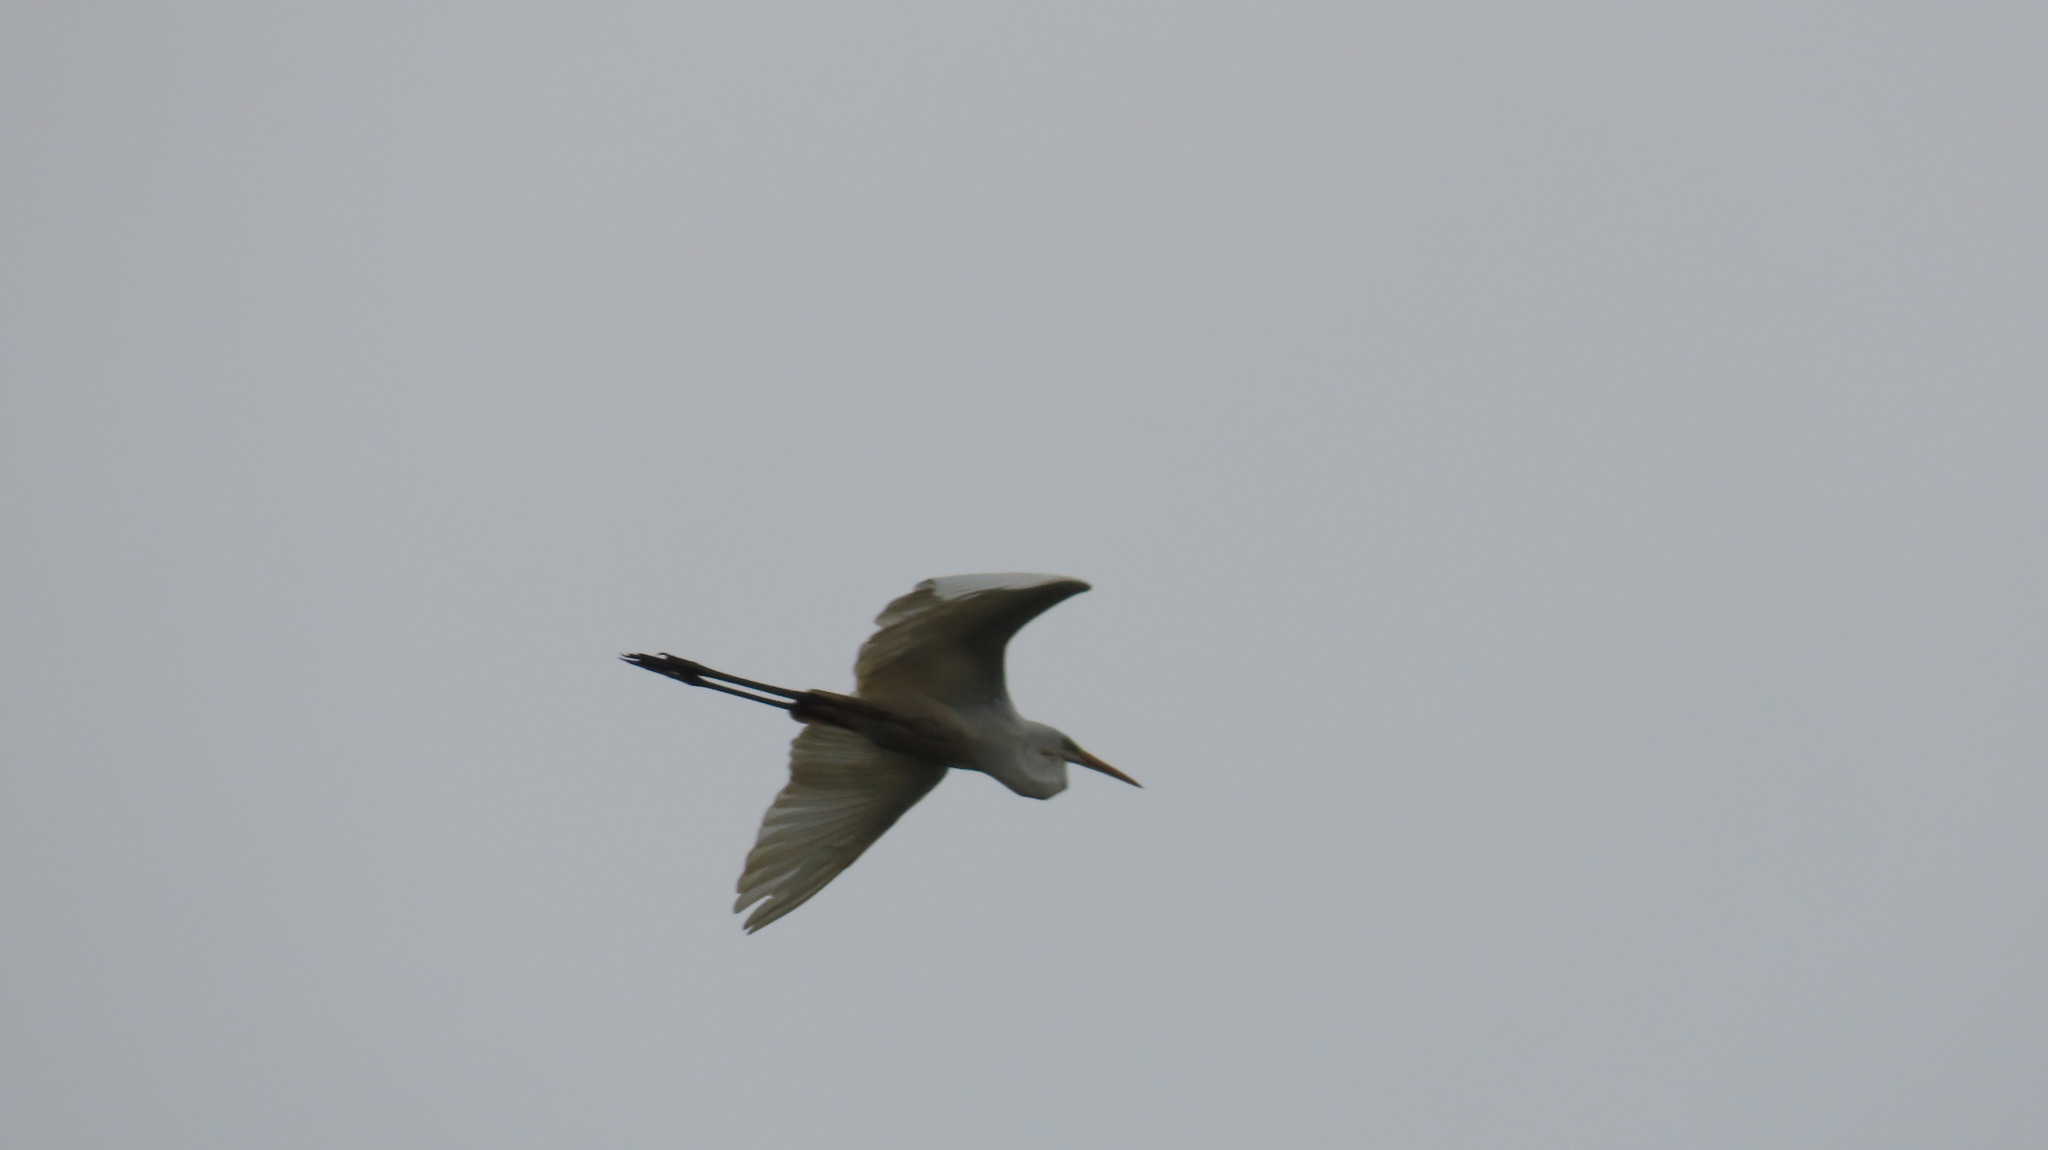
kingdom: Animalia
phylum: Chordata
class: Aves
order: Pelecaniformes
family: Ardeidae
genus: Egretta
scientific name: Egretta intermedia
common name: Intermediate egret
